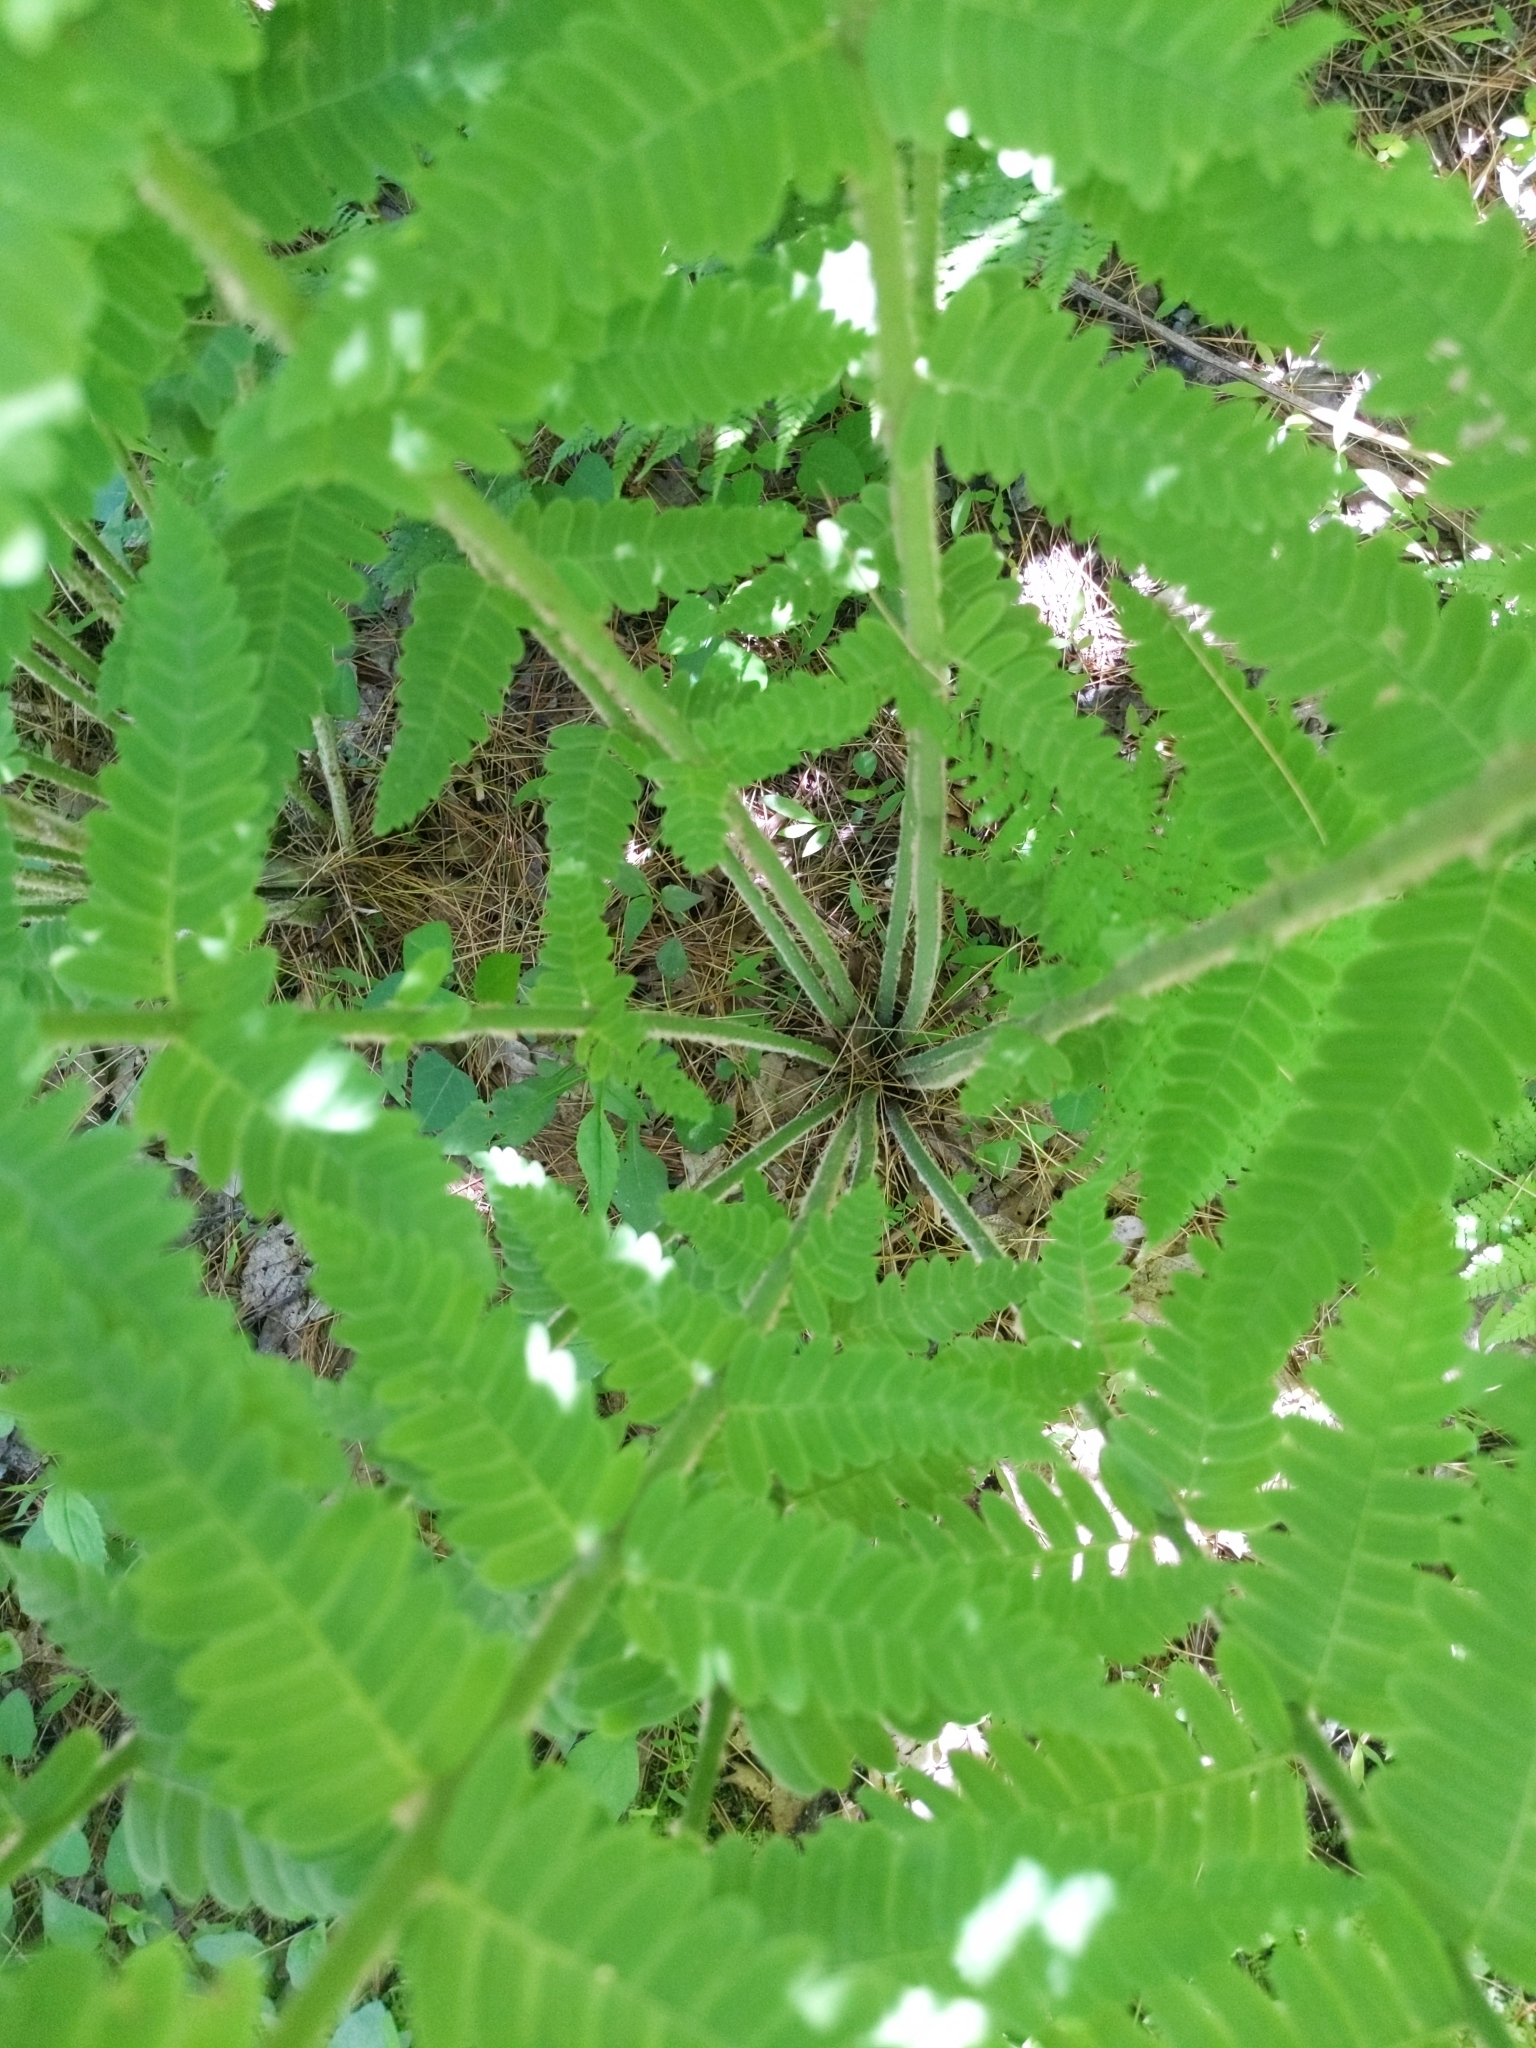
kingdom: Plantae
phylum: Tracheophyta
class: Polypodiopsida
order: Osmundales
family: Osmundaceae
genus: Claytosmunda
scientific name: Claytosmunda claytoniana
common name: Clayton's fern
